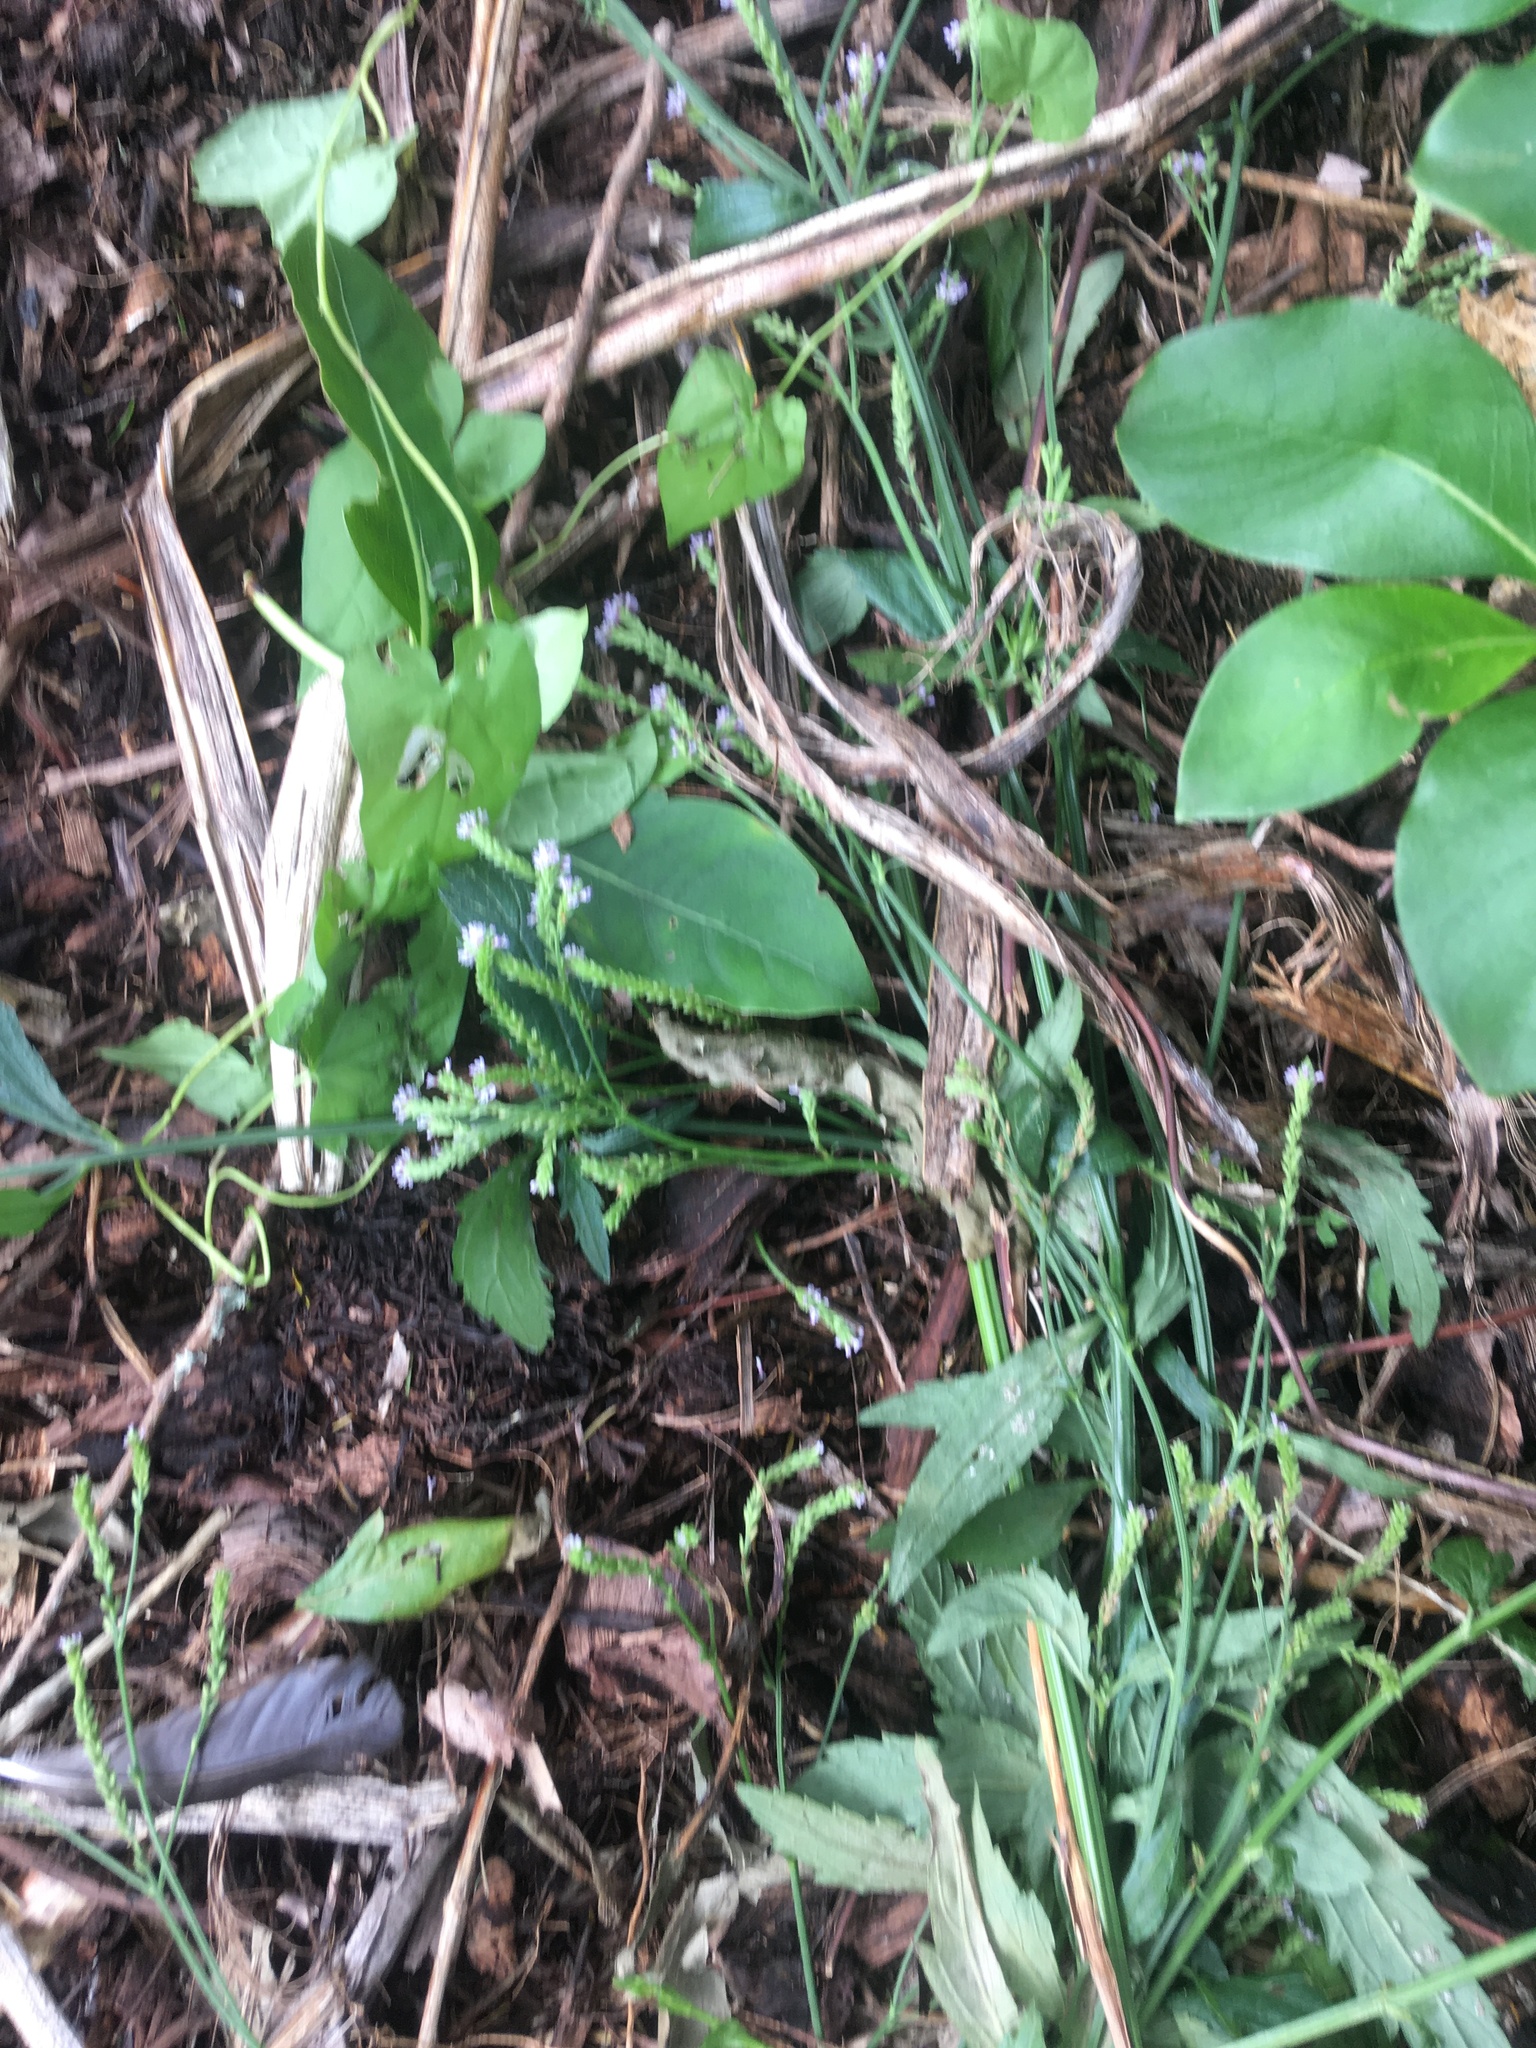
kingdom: Plantae
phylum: Tracheophyta
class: Magnoliopsida
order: Lamiales
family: Verbenaceae
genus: Verbena
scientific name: Verbena litoralis
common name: Seashore vervain
